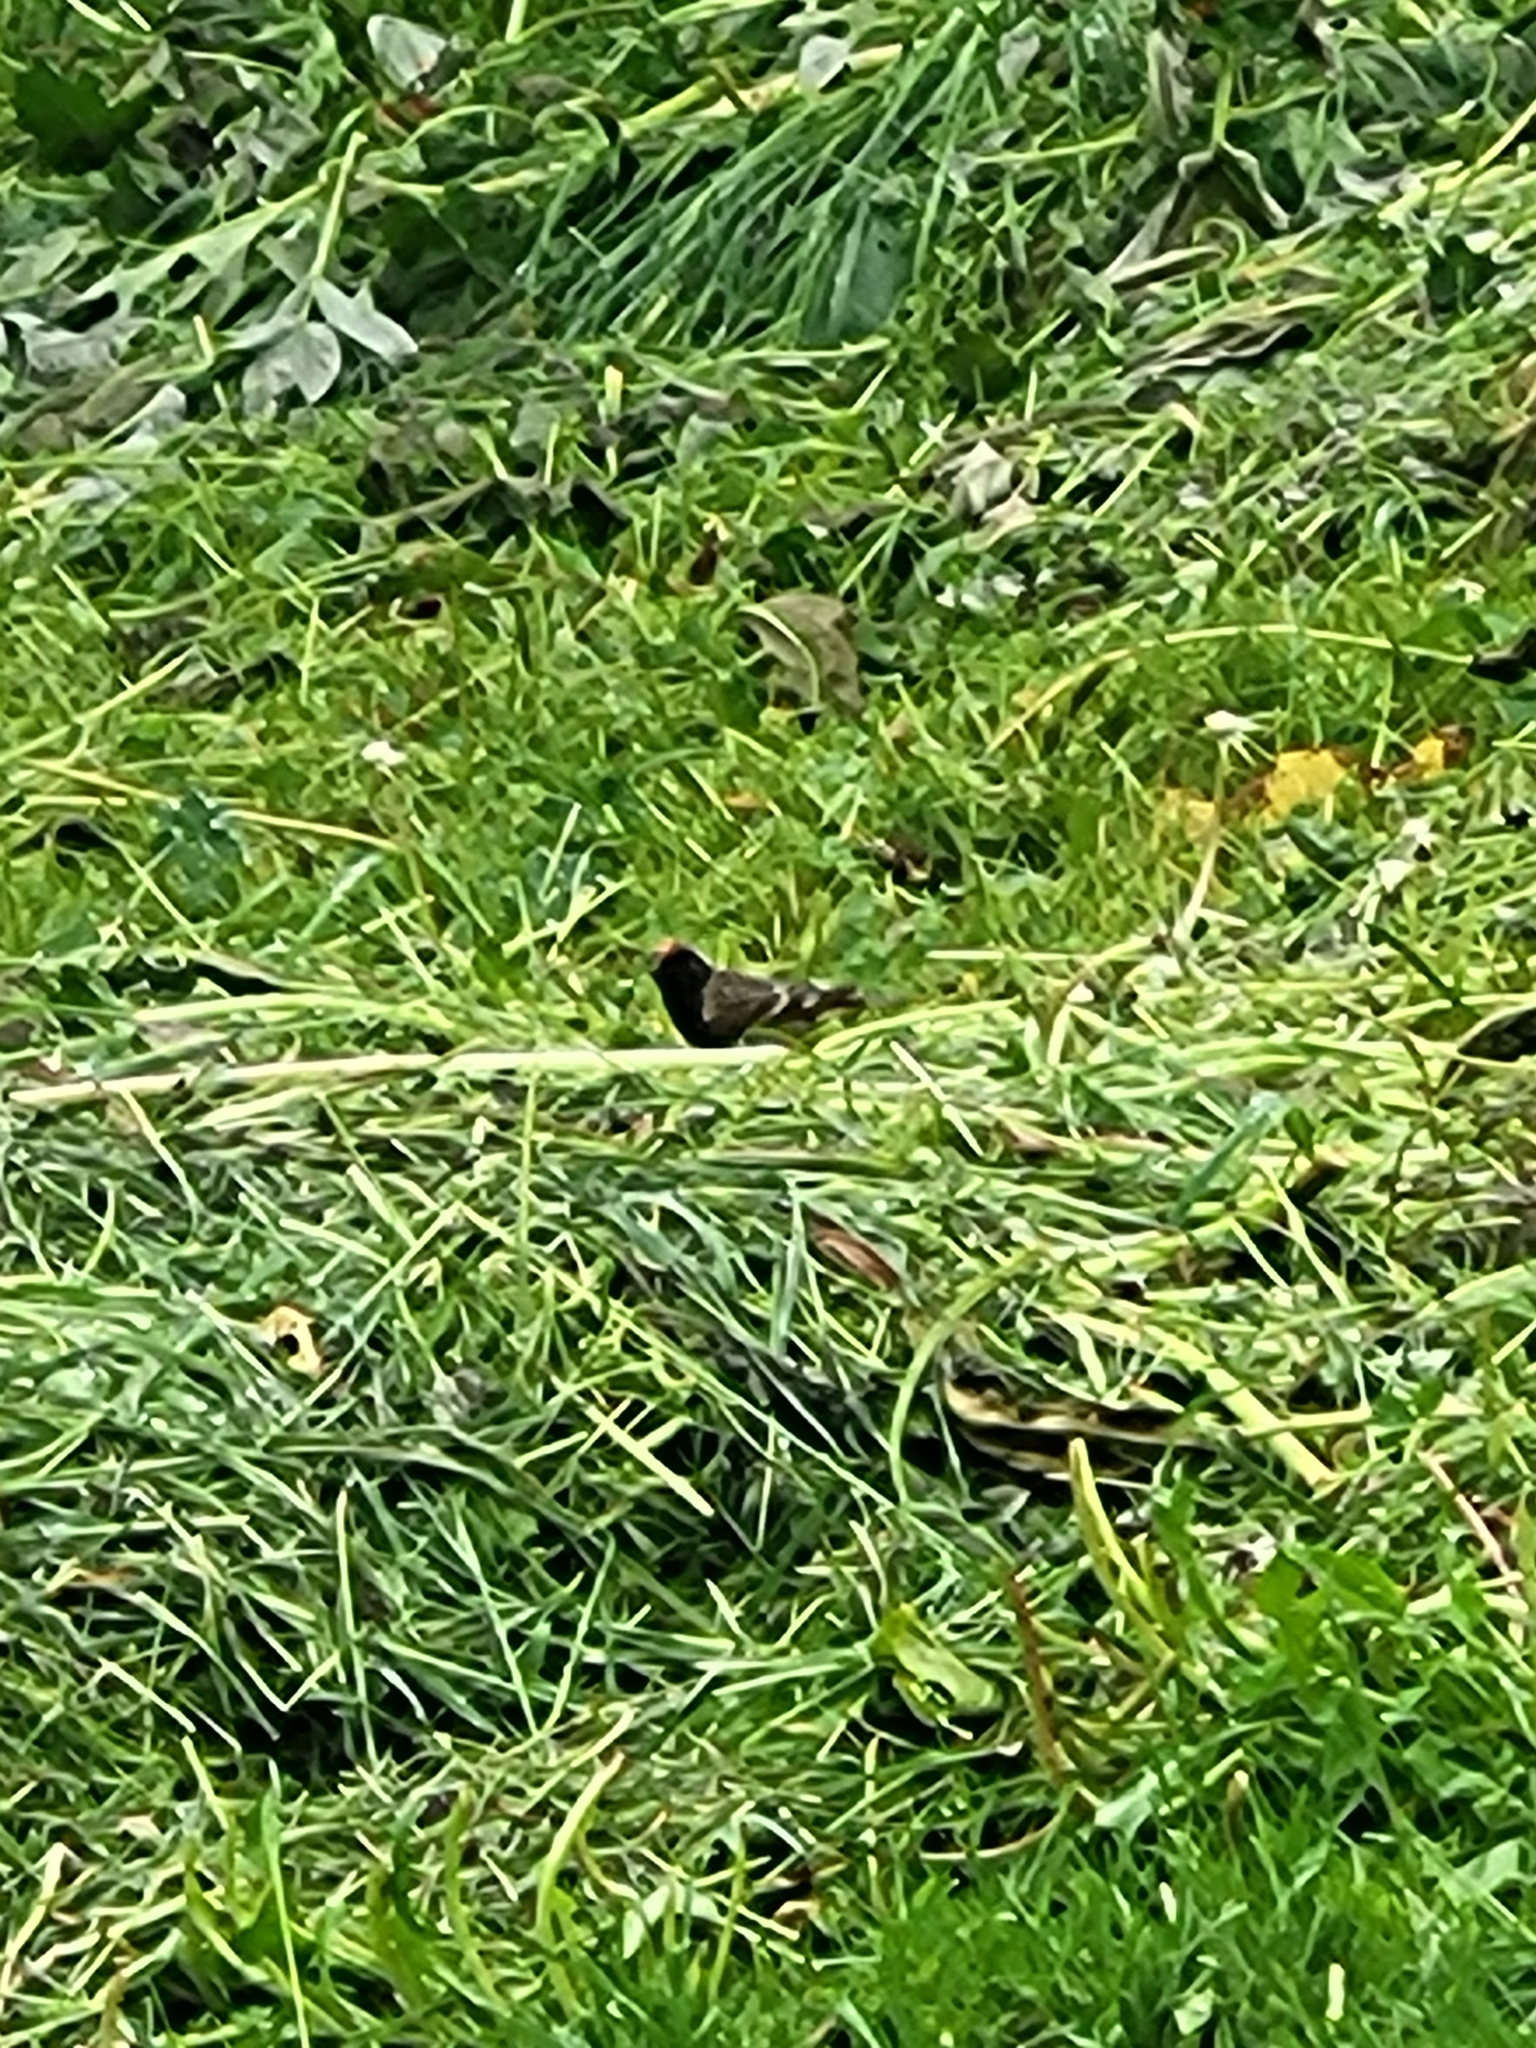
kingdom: Animalia
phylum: Chordata
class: Aves
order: Passeriformes
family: Fringillidae
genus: Serinus
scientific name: Serinus pusillus
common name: Red-fronted serin
